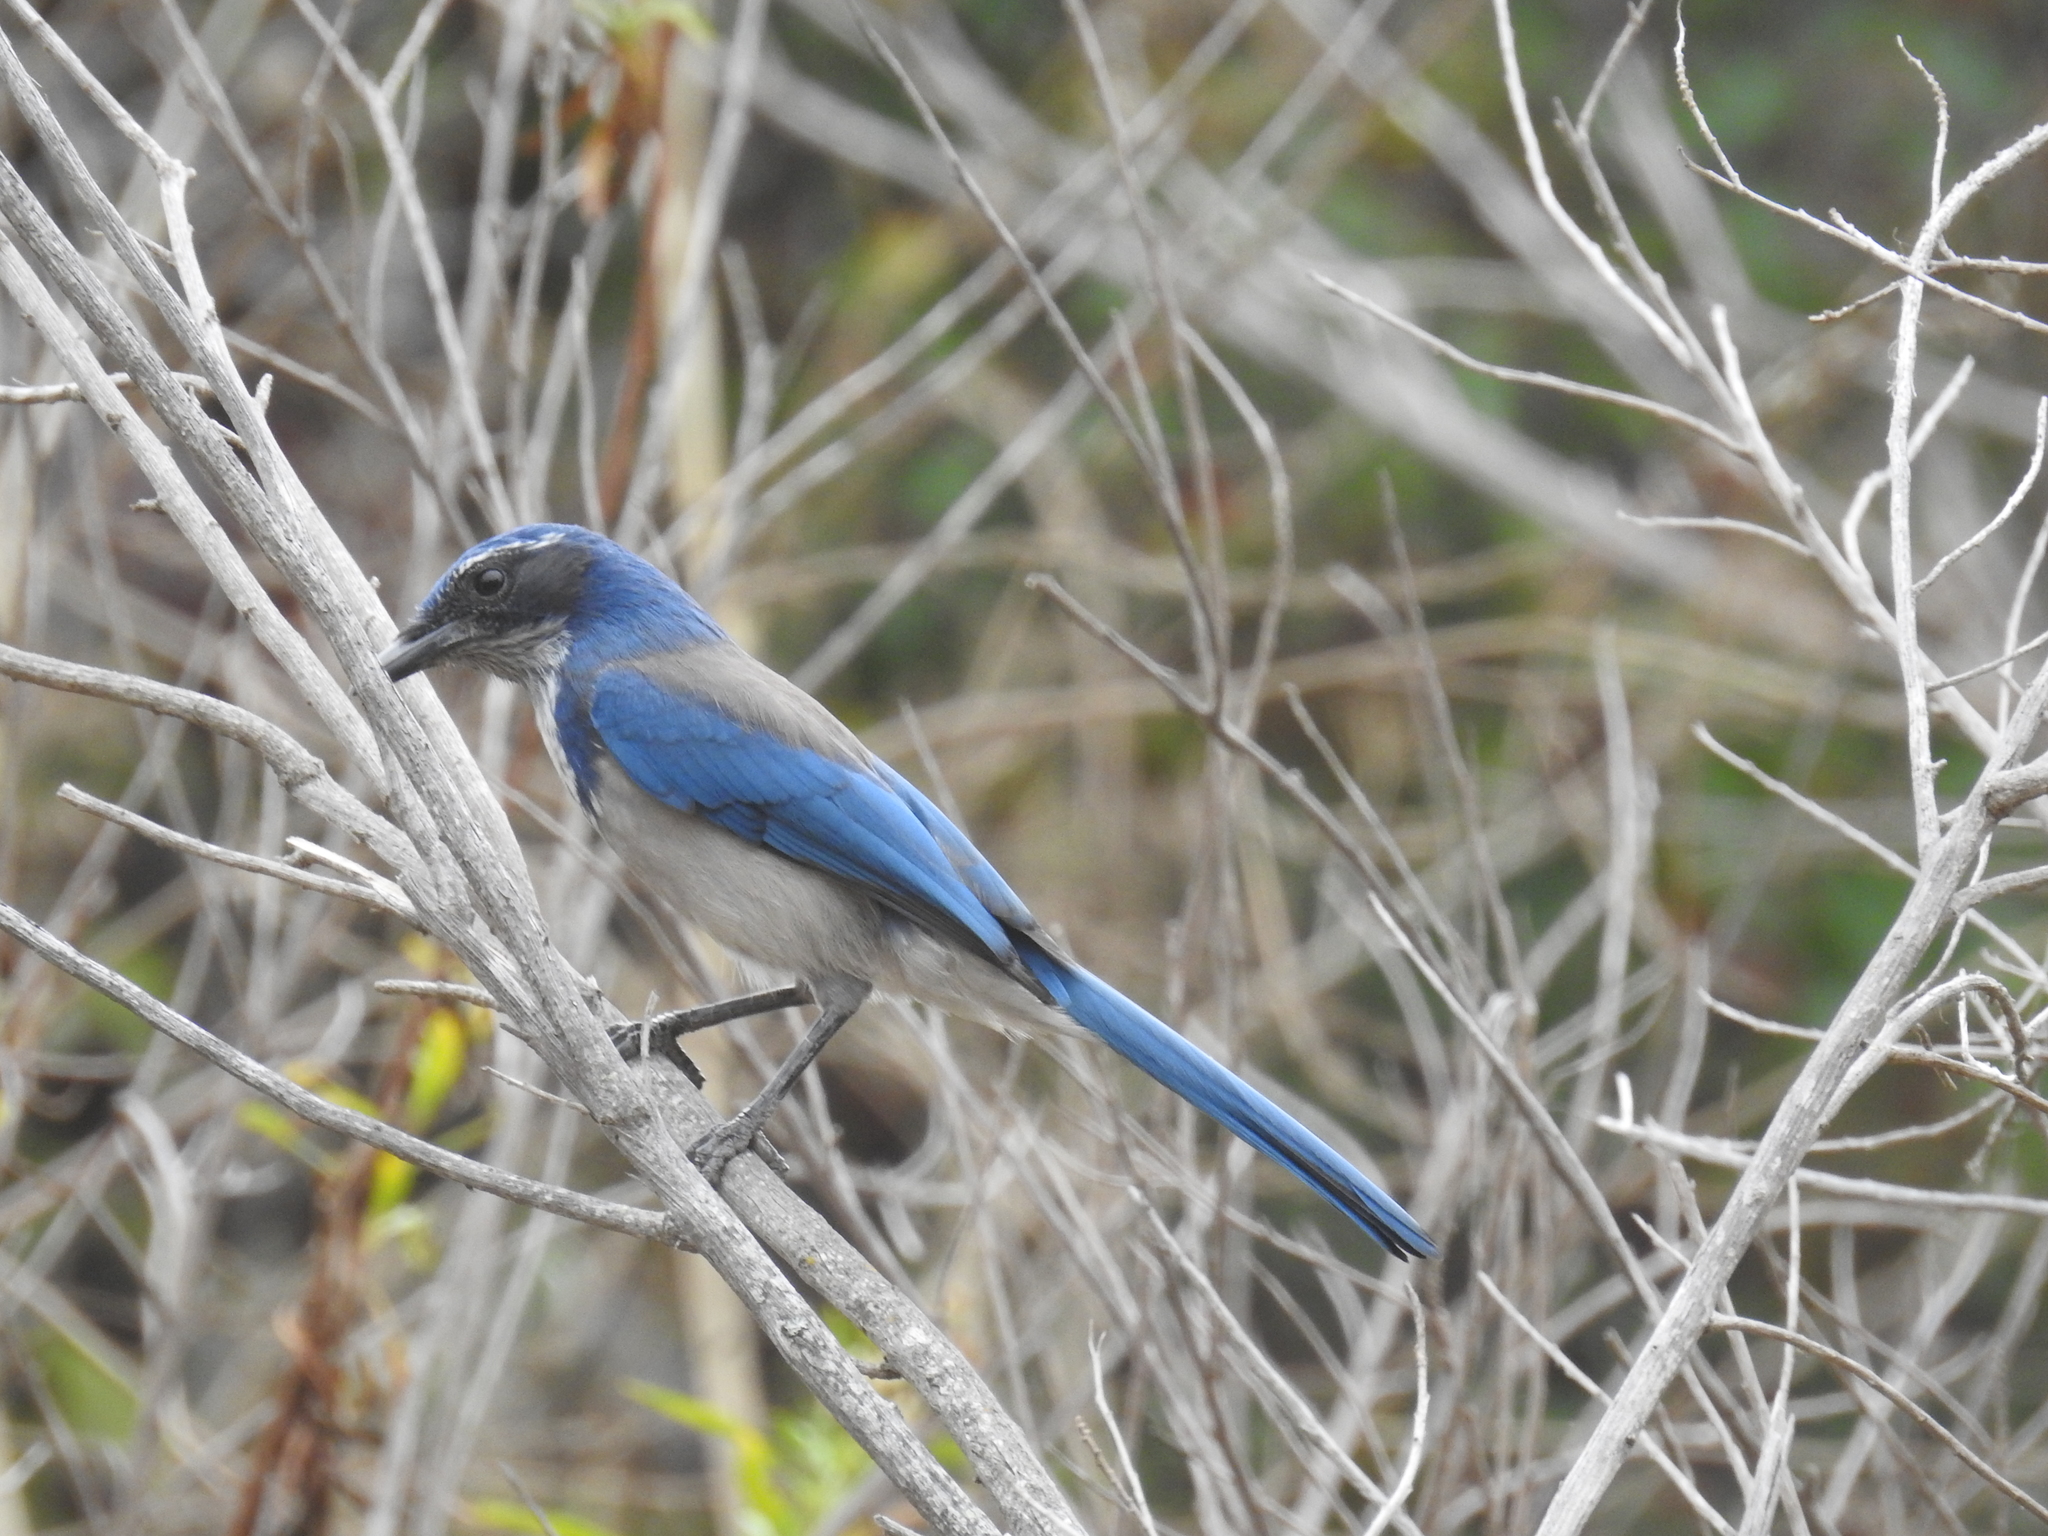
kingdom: Animalia
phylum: Chordata
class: Aves
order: Passeriformes
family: Corvidae
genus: Aphelocoma
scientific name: Aphelocoma californica
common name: California scrub-jay
